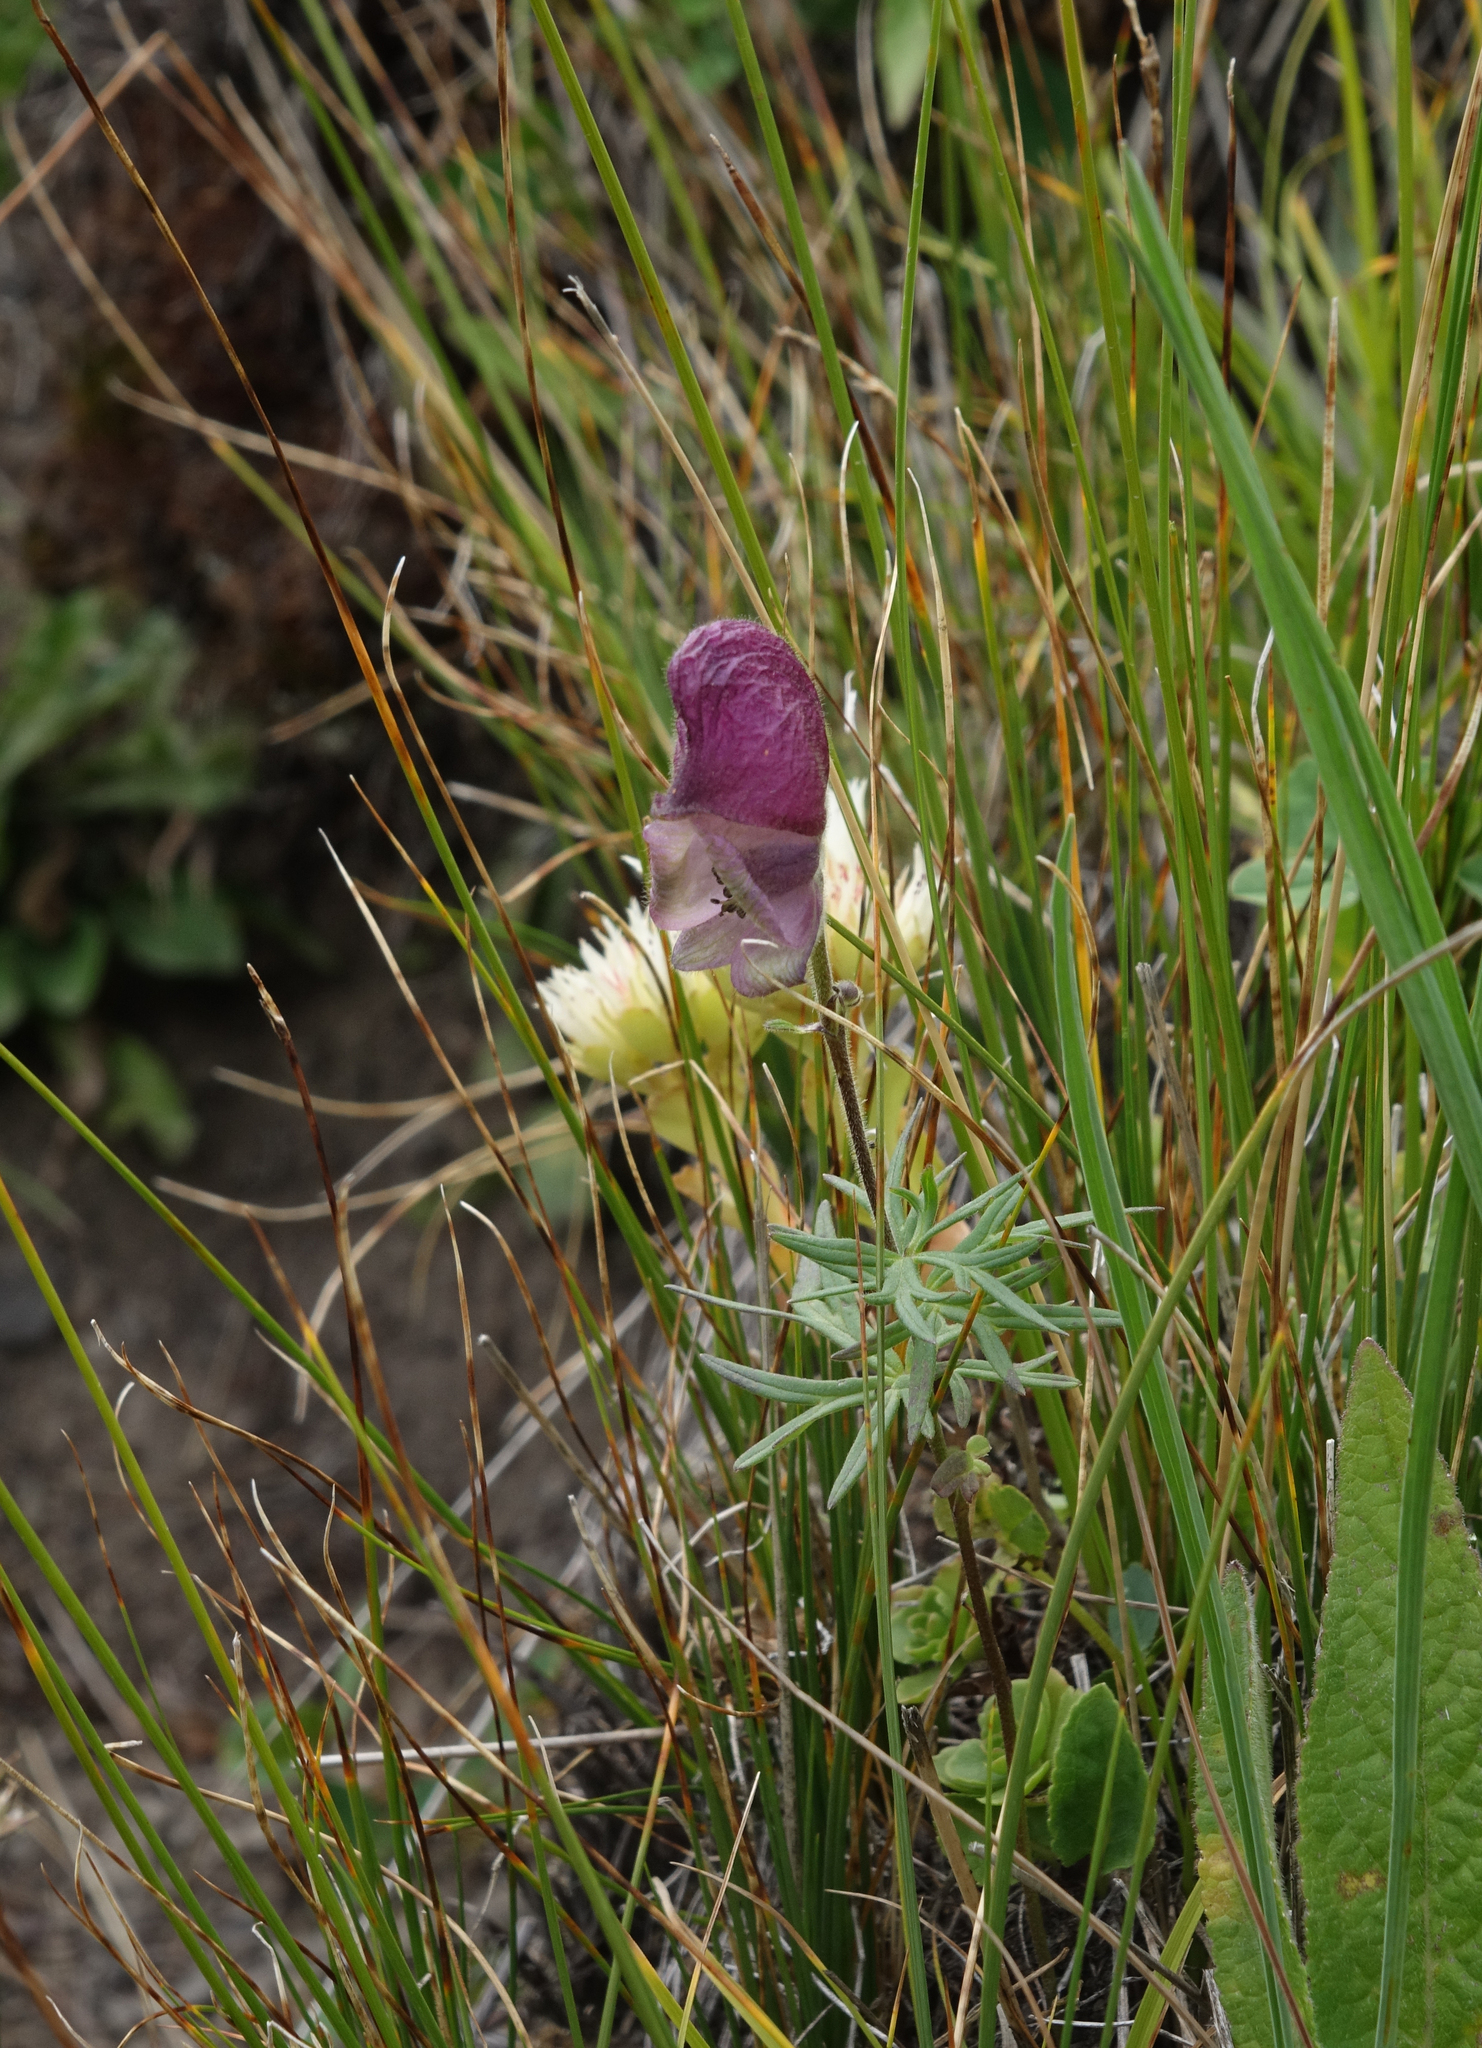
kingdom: Plantae
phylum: Tracheophyta
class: Magnoliopsida
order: Ranunculales
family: Ranunculaceae
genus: Aconitum
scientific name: Aconitum anthora
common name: Yellow monkshood
